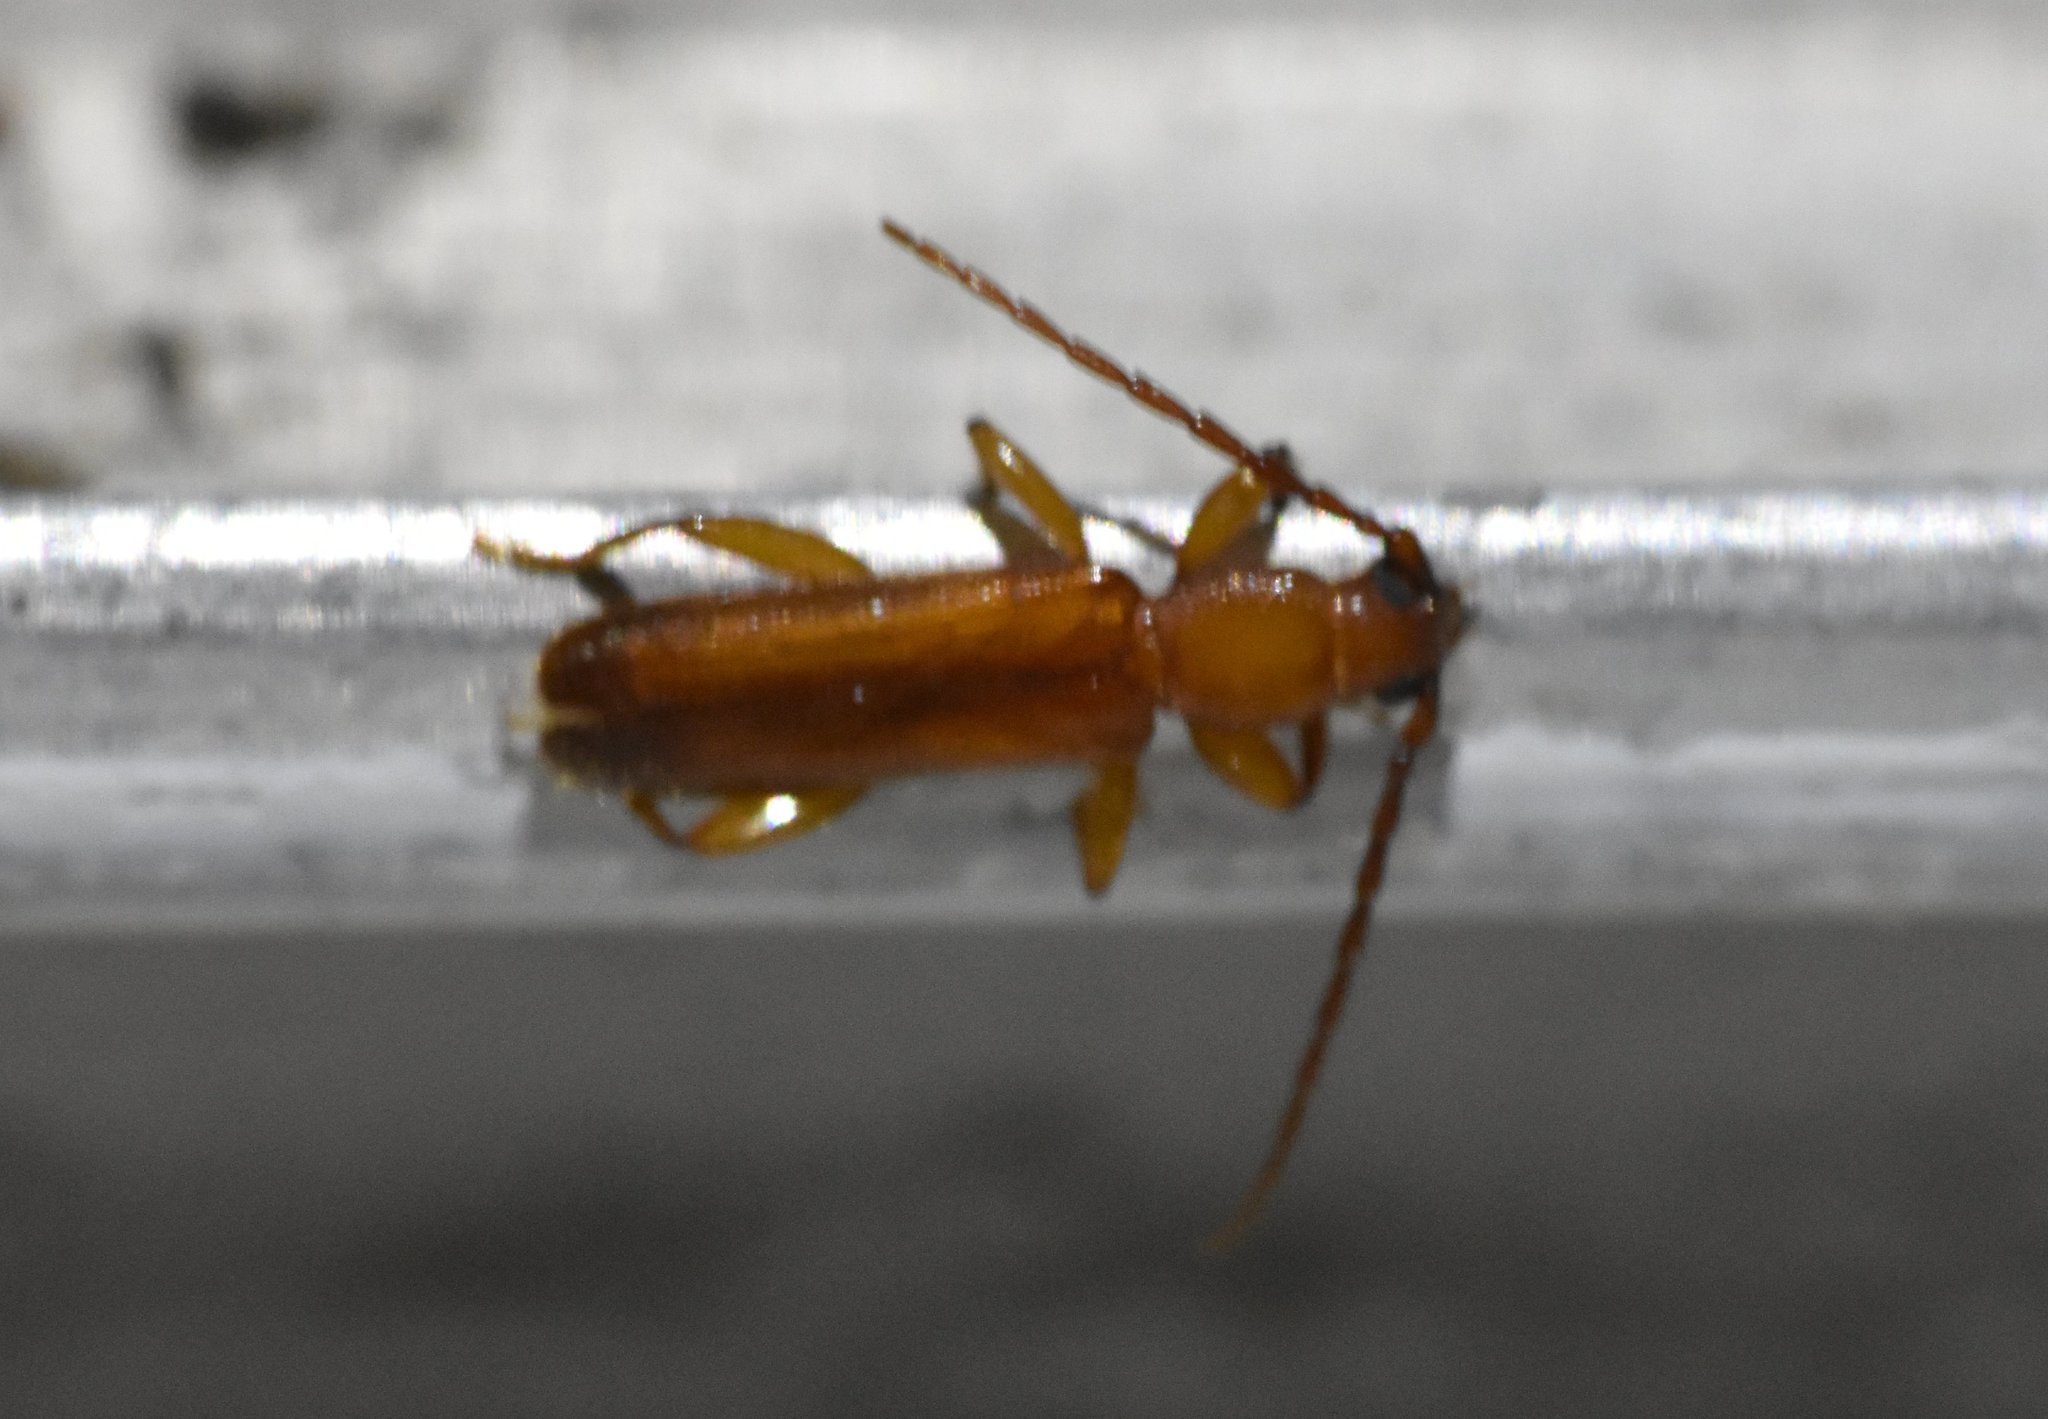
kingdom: Animalia
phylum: Arthropoda
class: Insecta
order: Coleoptera
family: Cerambycidae
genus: Smodicum
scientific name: Smodicum cucujiforme
